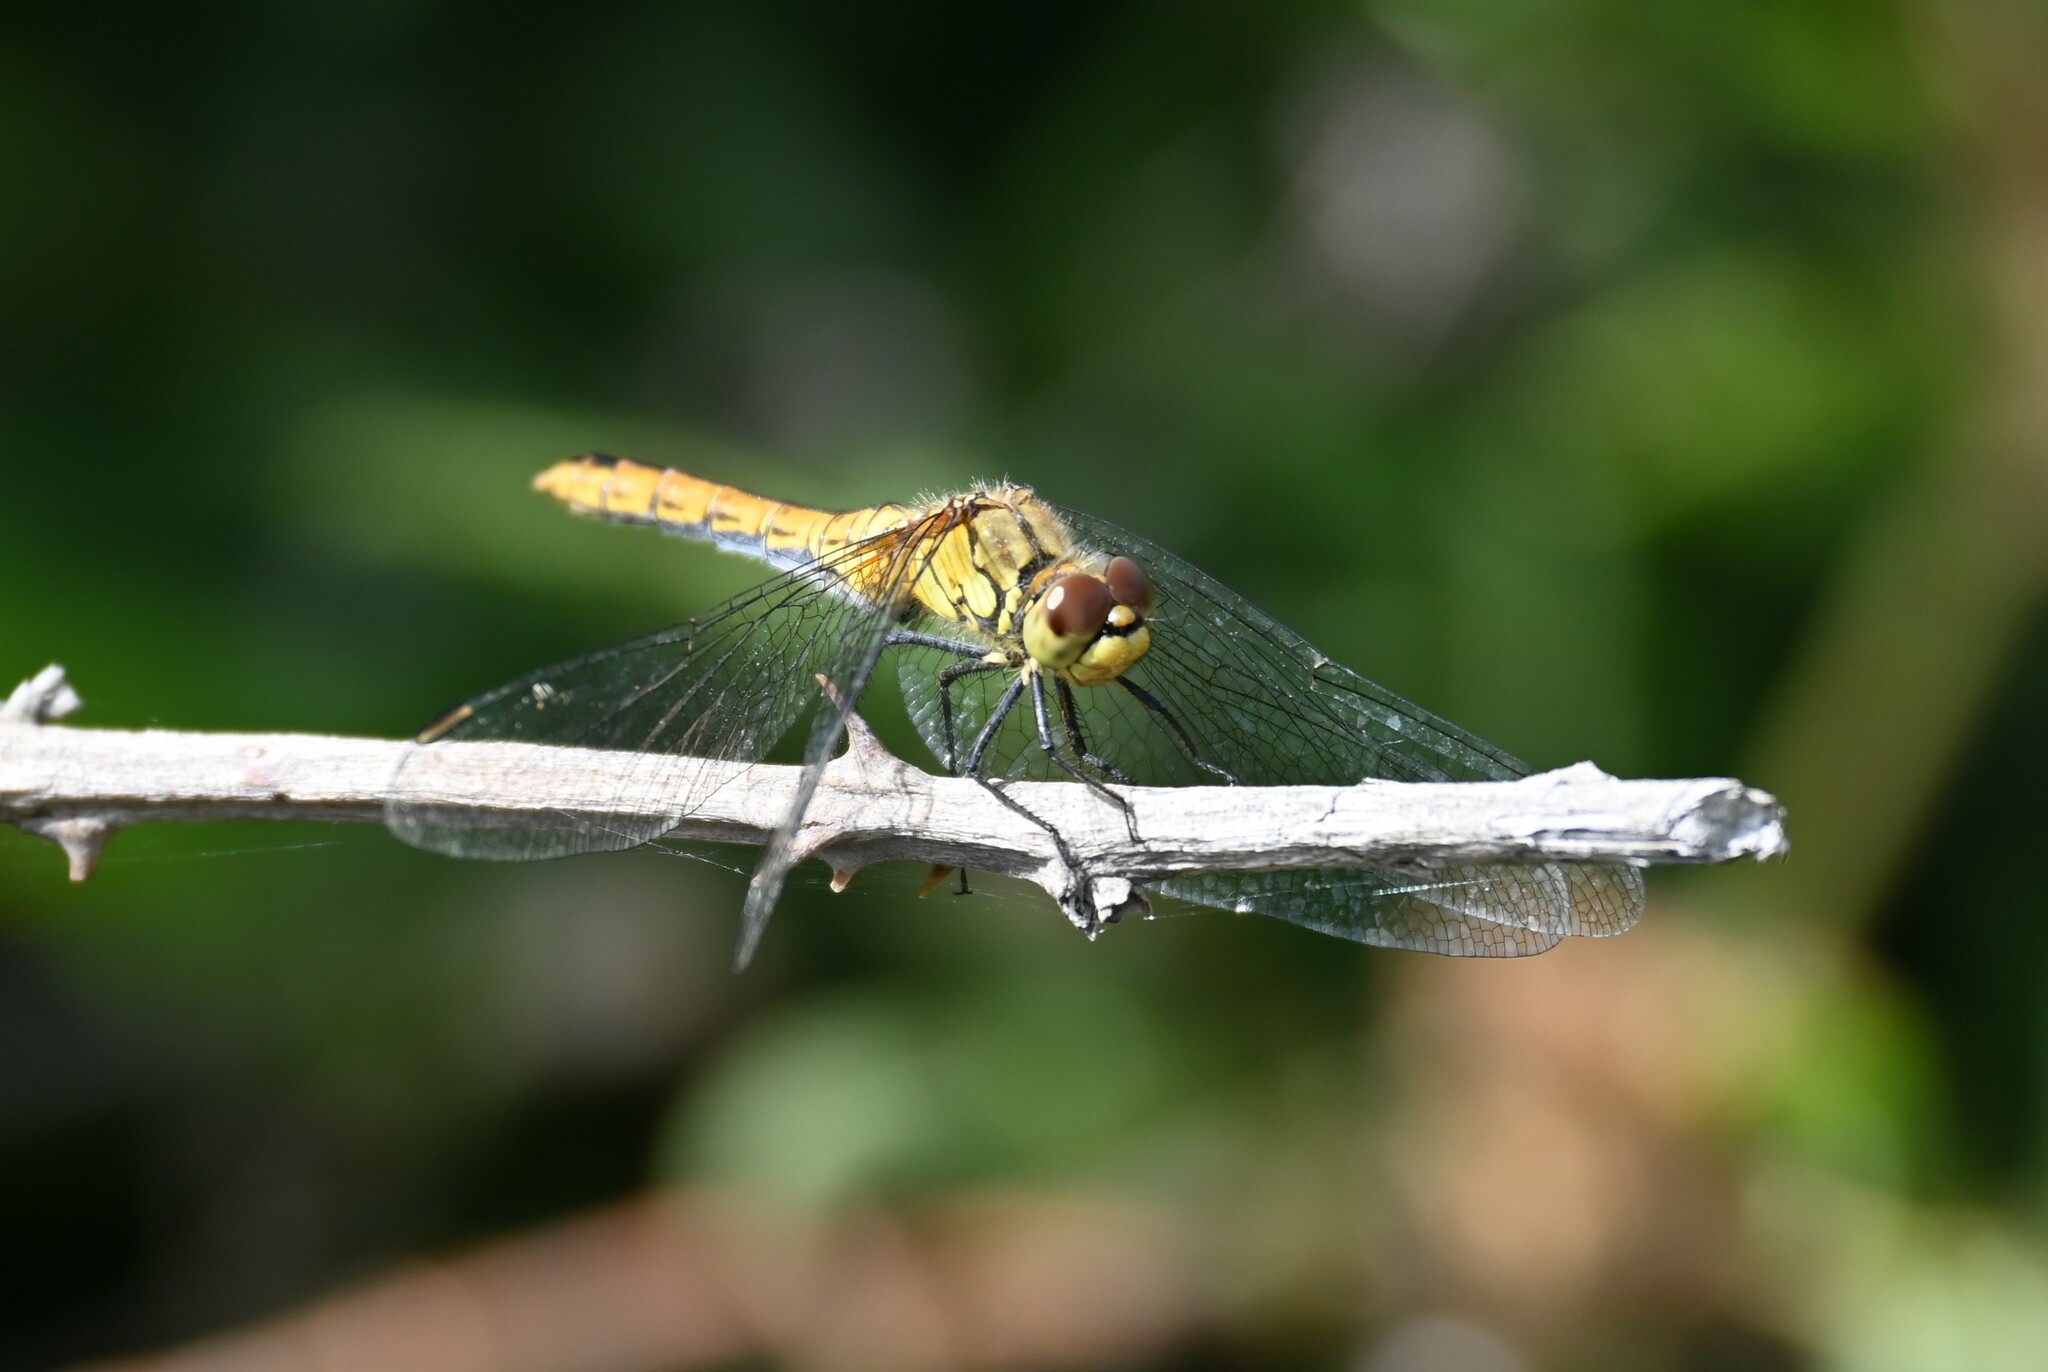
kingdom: Animalia
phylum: Arthropoda
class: Insecta
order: Odonata
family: Libellulidae
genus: Sympetrum
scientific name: Sympetrum sanguineum
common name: Ruddy darter
